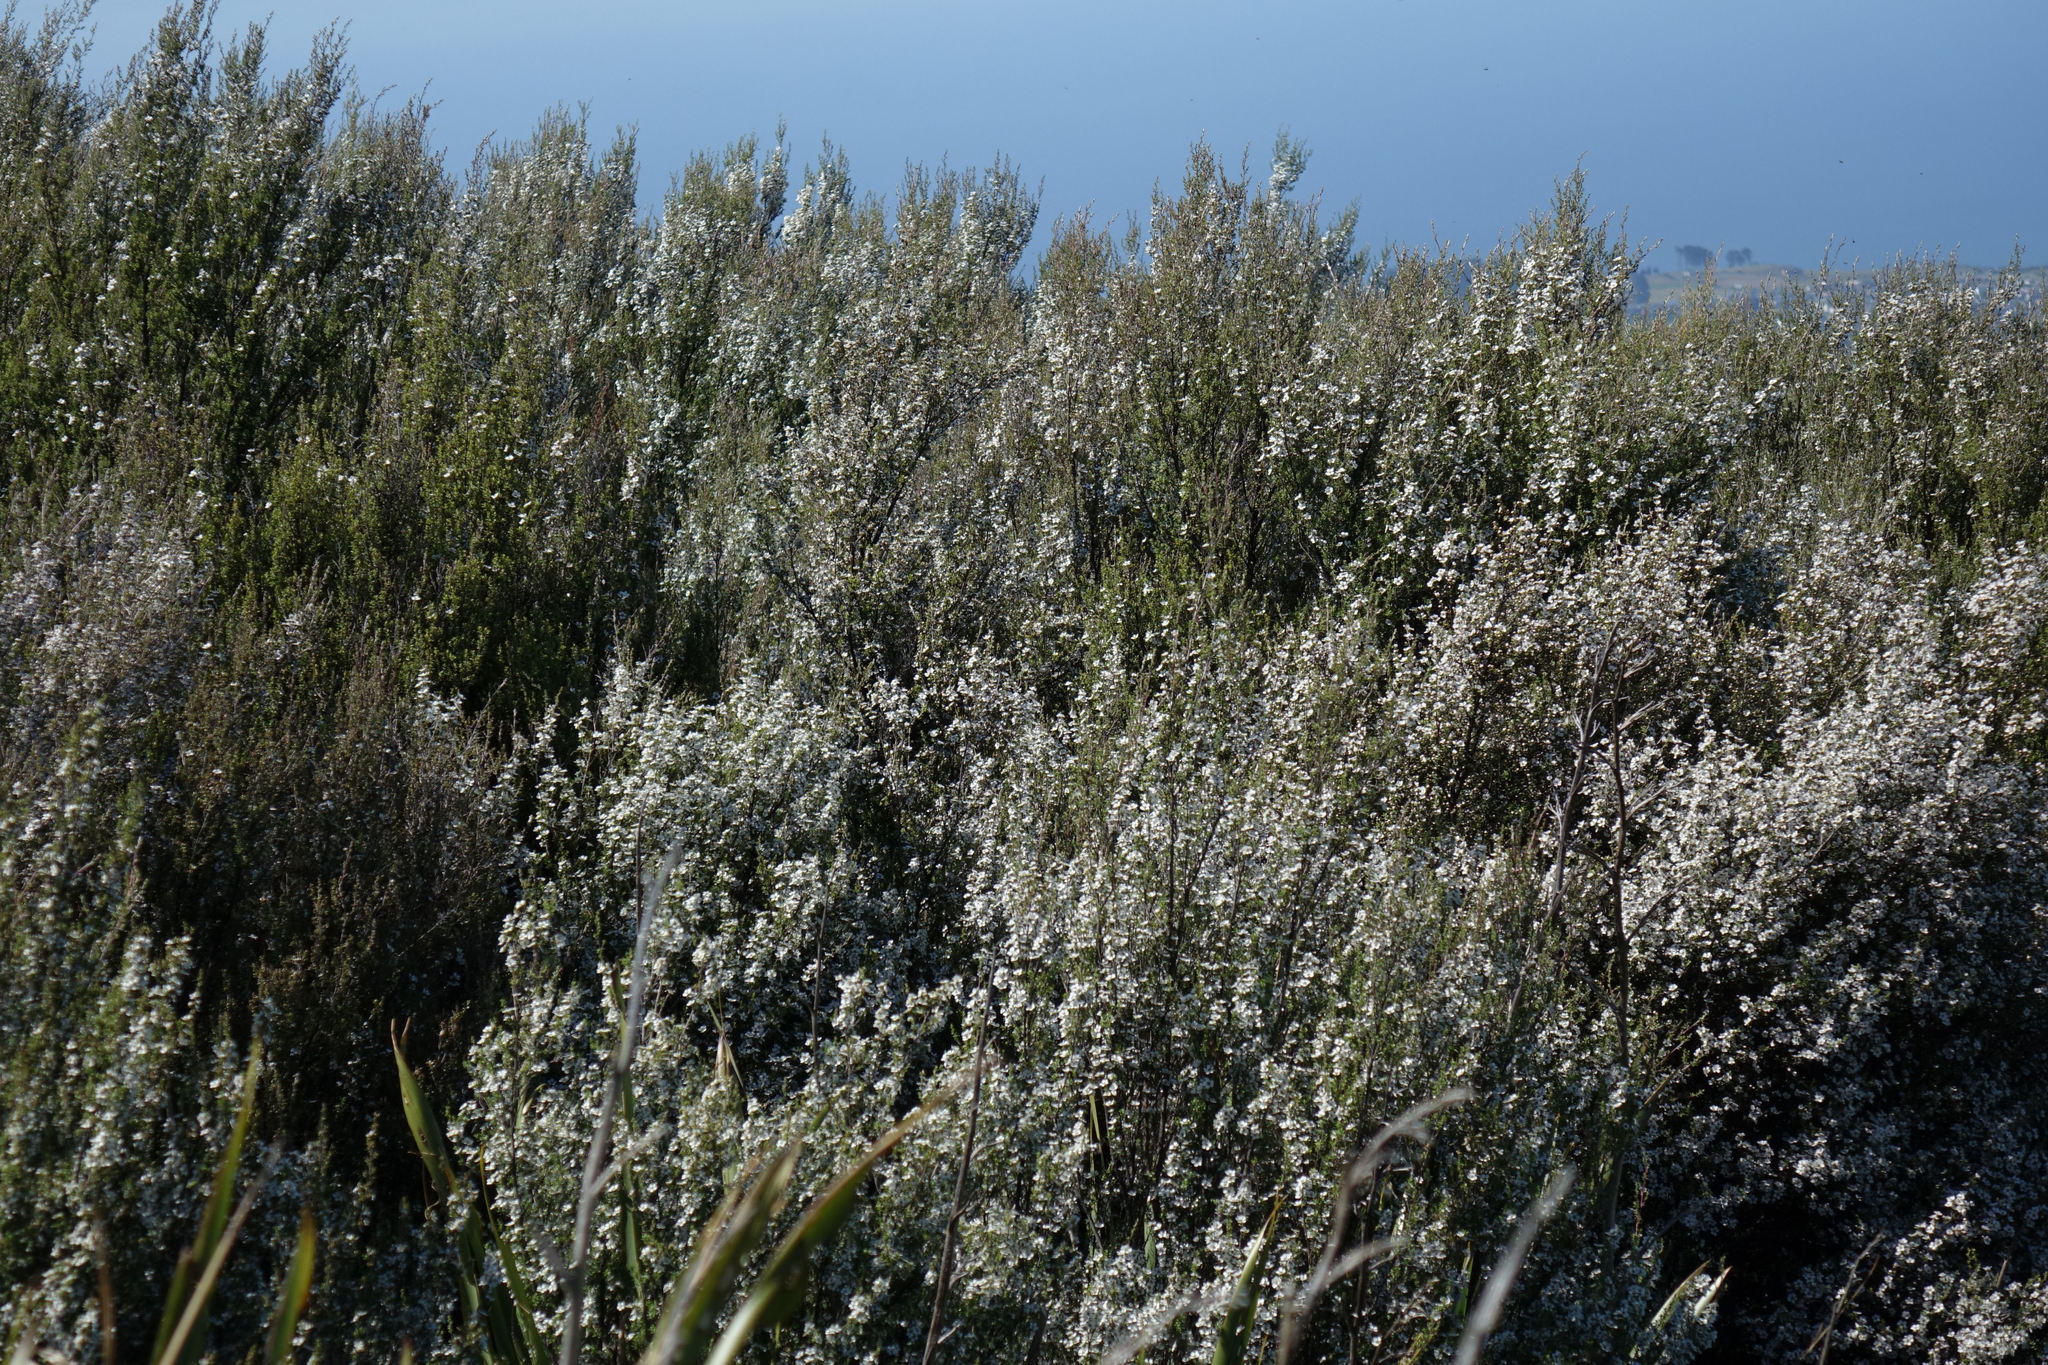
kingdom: Plantae
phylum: Tracheophyta
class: Magnoliopsida
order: Myrtales
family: Myrtaceae
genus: Leptospermum
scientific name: Leptospermum scoparium
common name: Broom tea-tree
